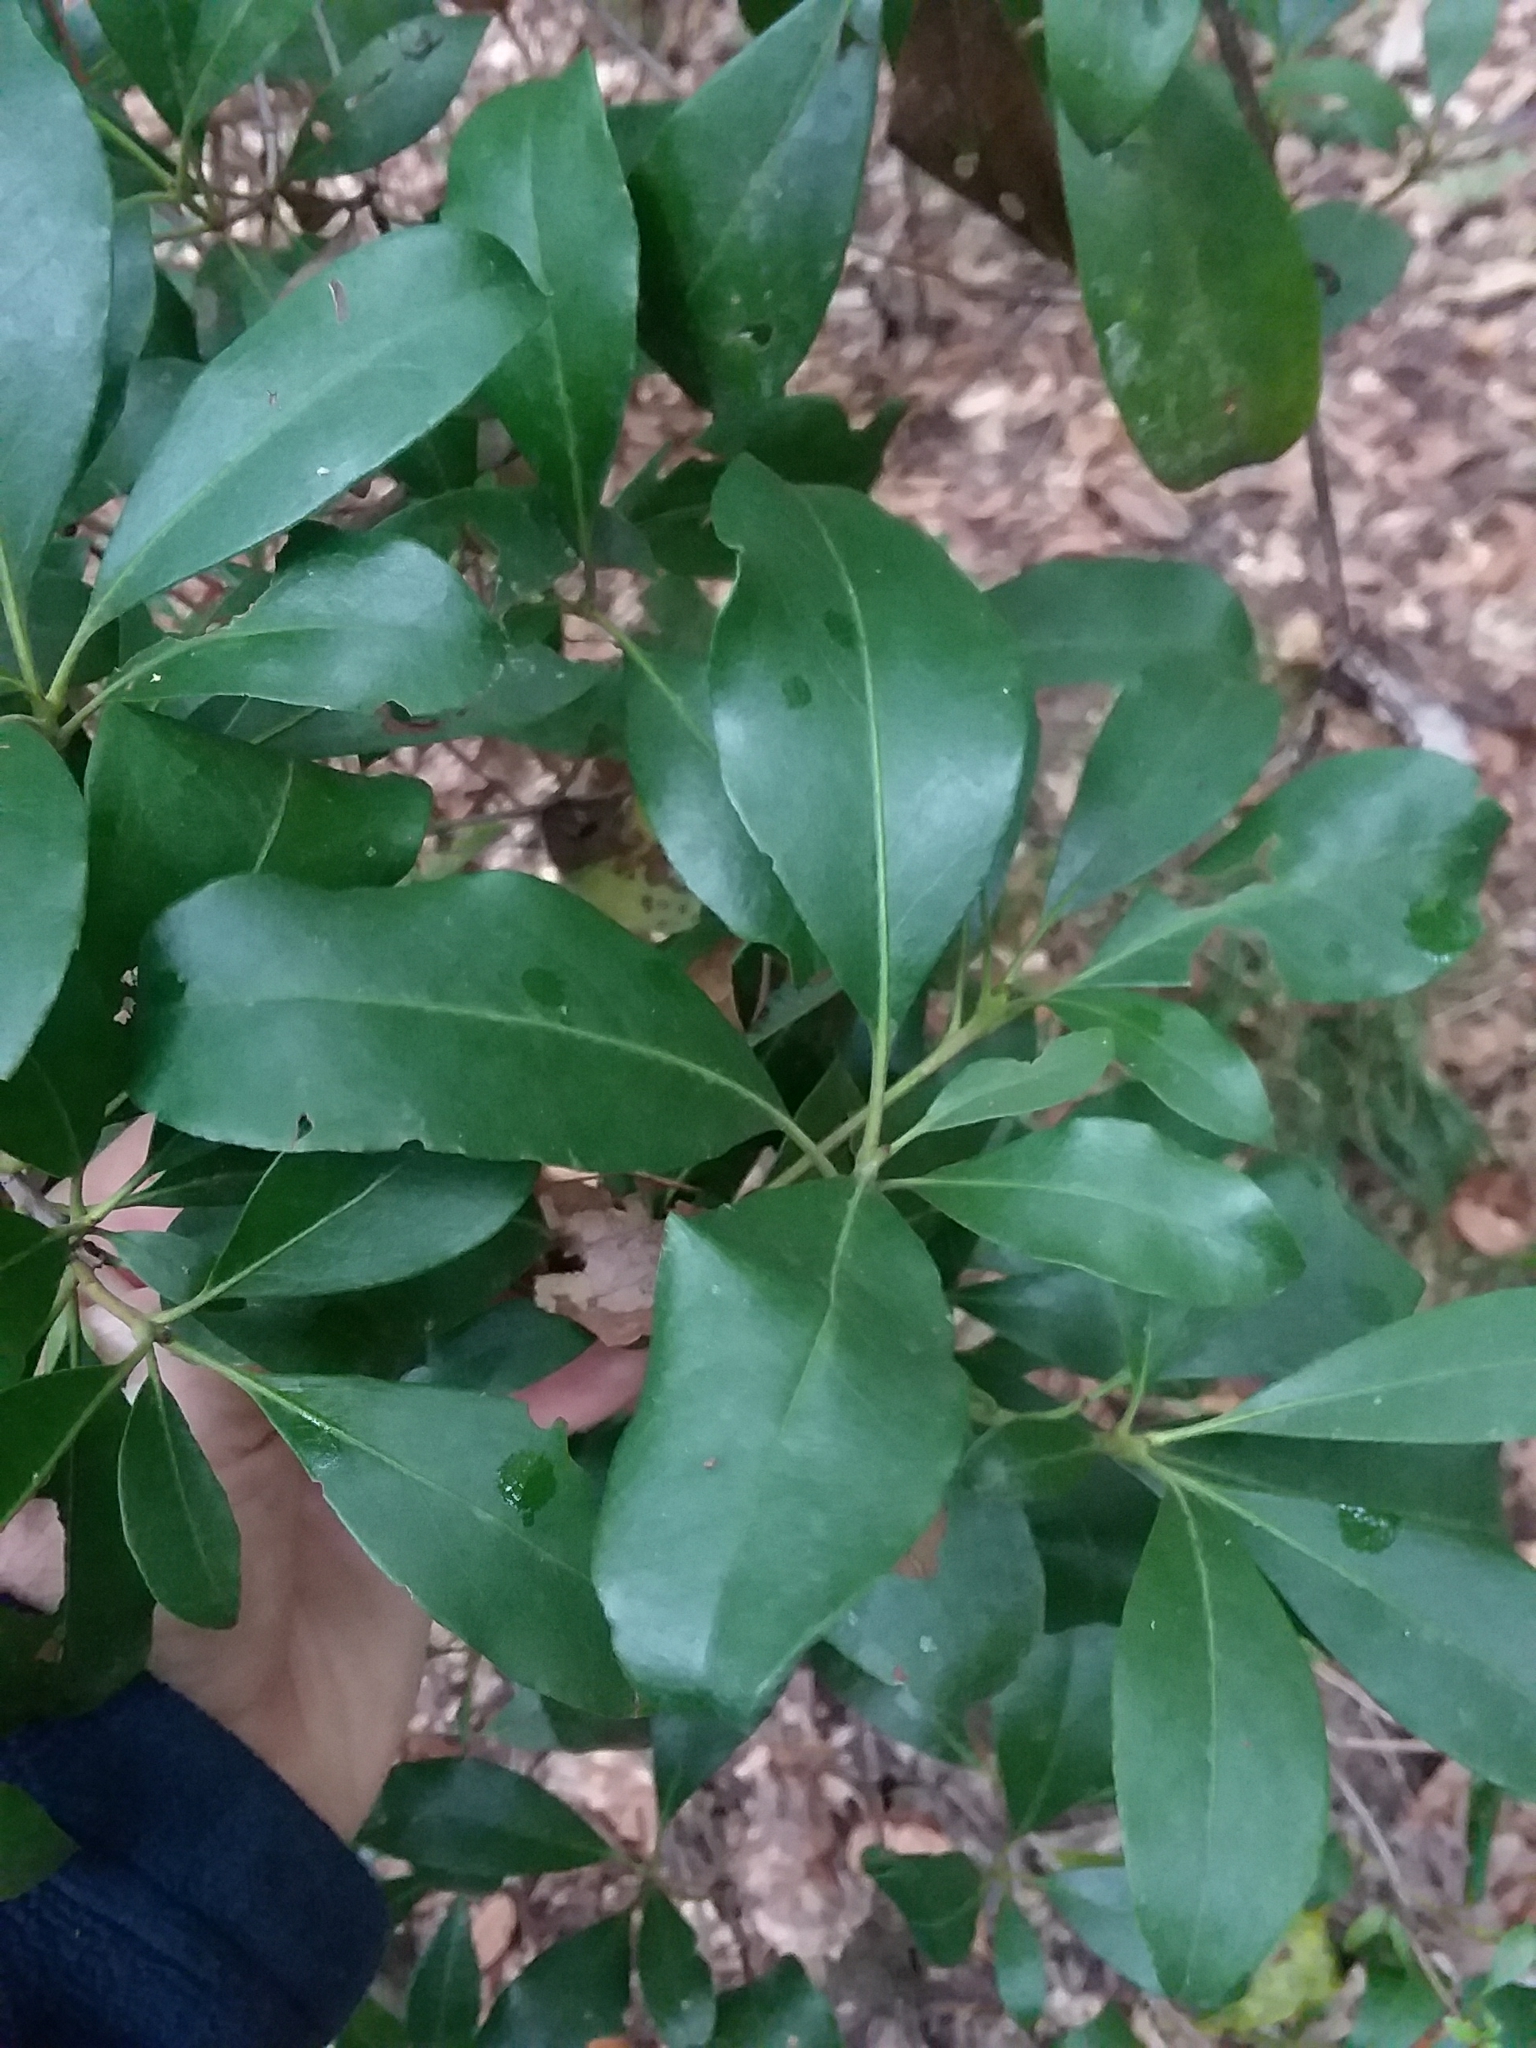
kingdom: Plantae
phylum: Tracheophyta
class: Magnoliopsida
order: Ericales
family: Ericaceae
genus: Kalmia
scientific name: Kalmia latifolia
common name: Mountain-laurel
